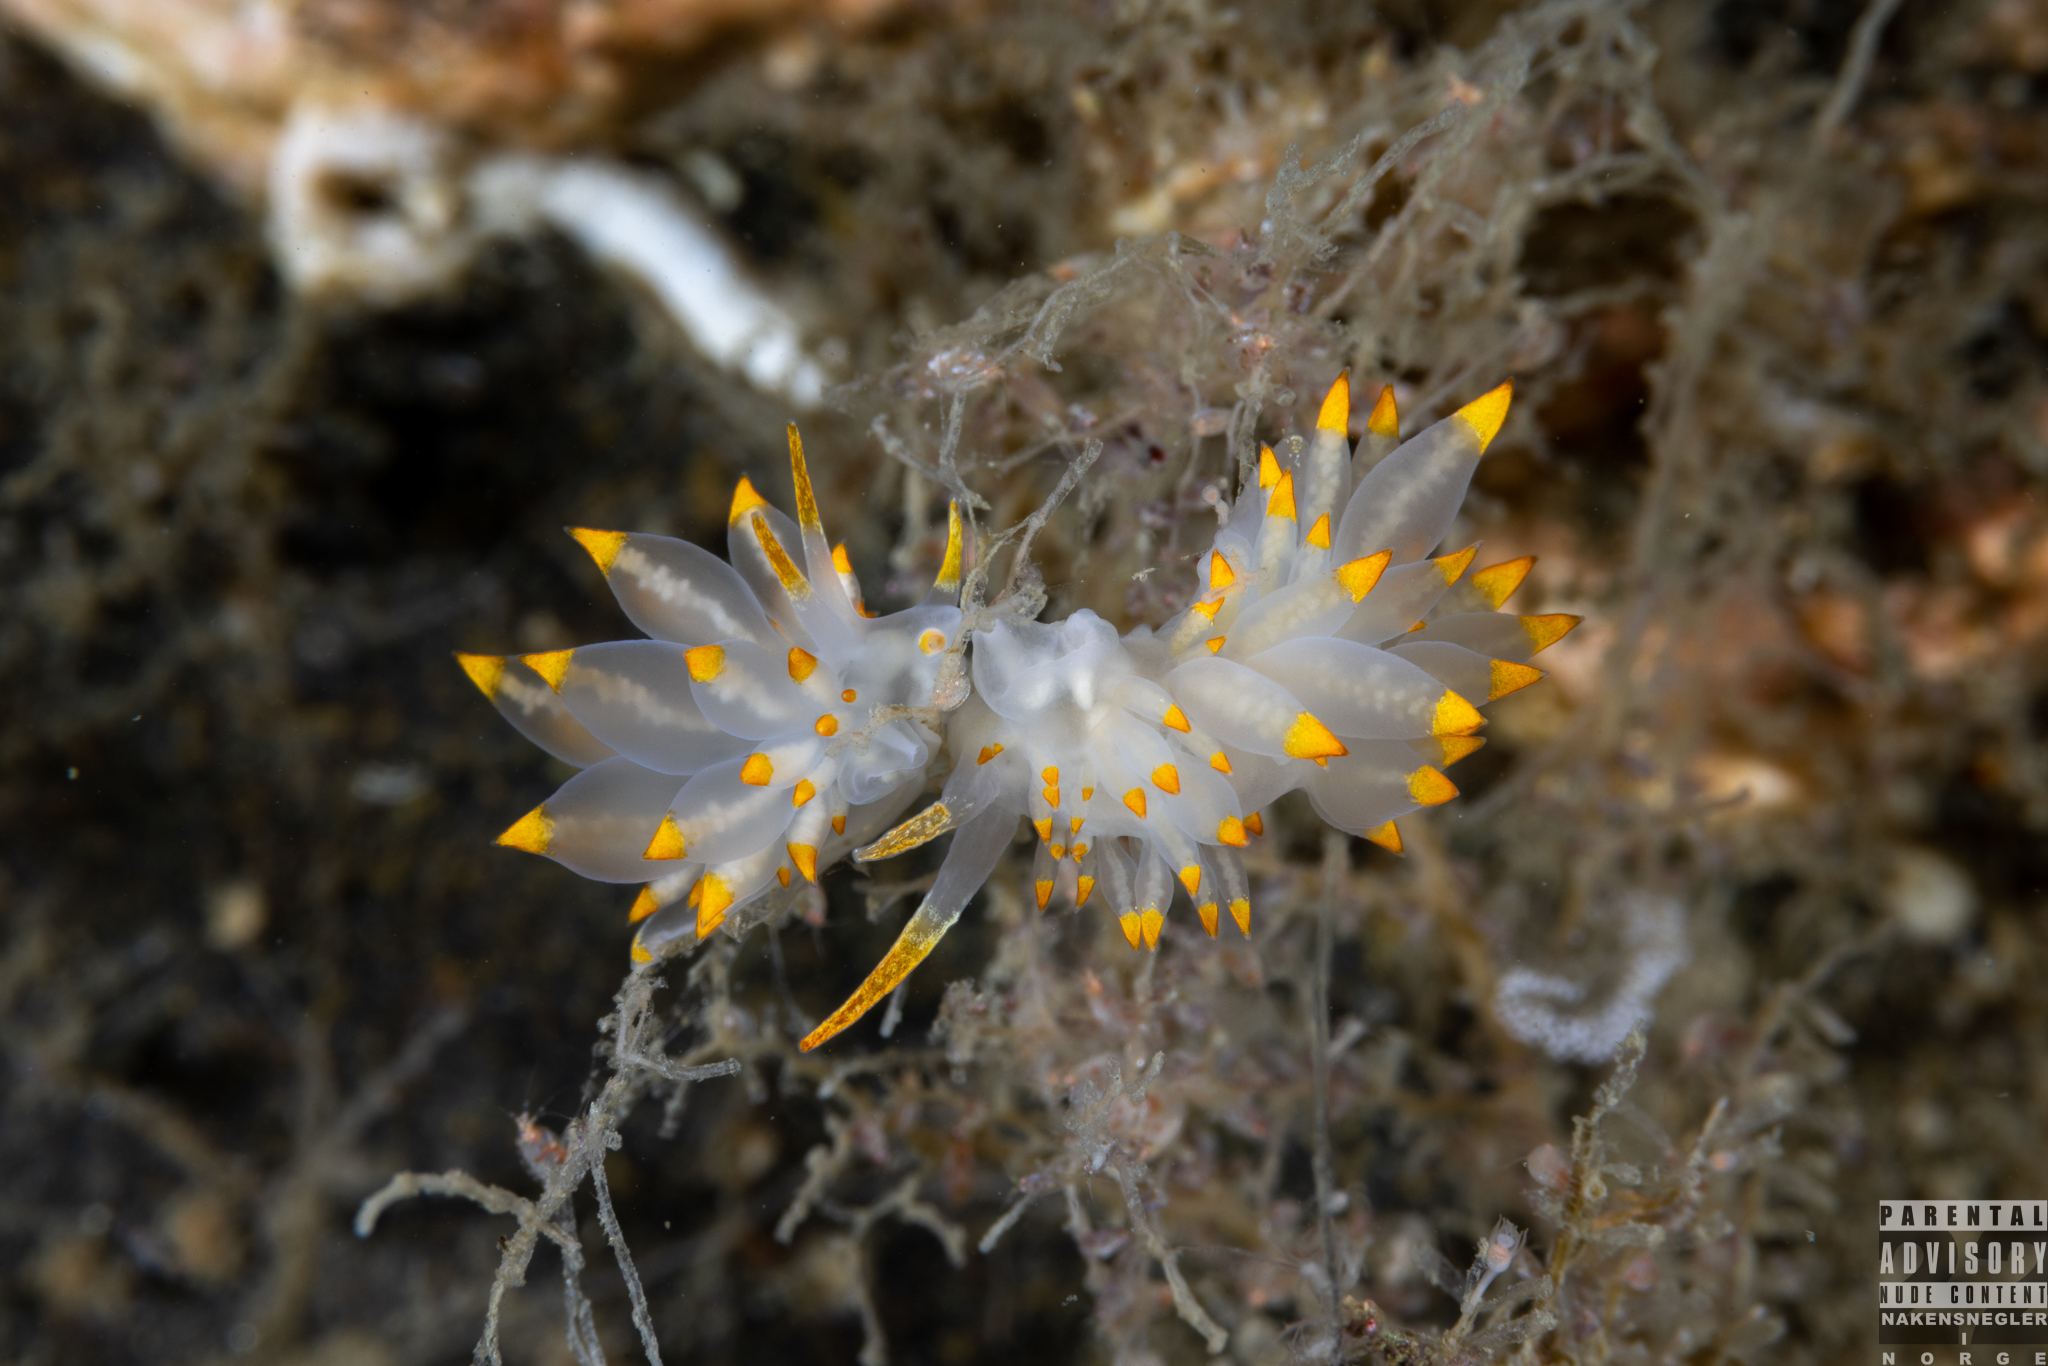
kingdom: Animalia
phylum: Mollusca
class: Gastropoda
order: Nudibranchia
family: Eubranchidae
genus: Amphorina
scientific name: Amphorina farrani
